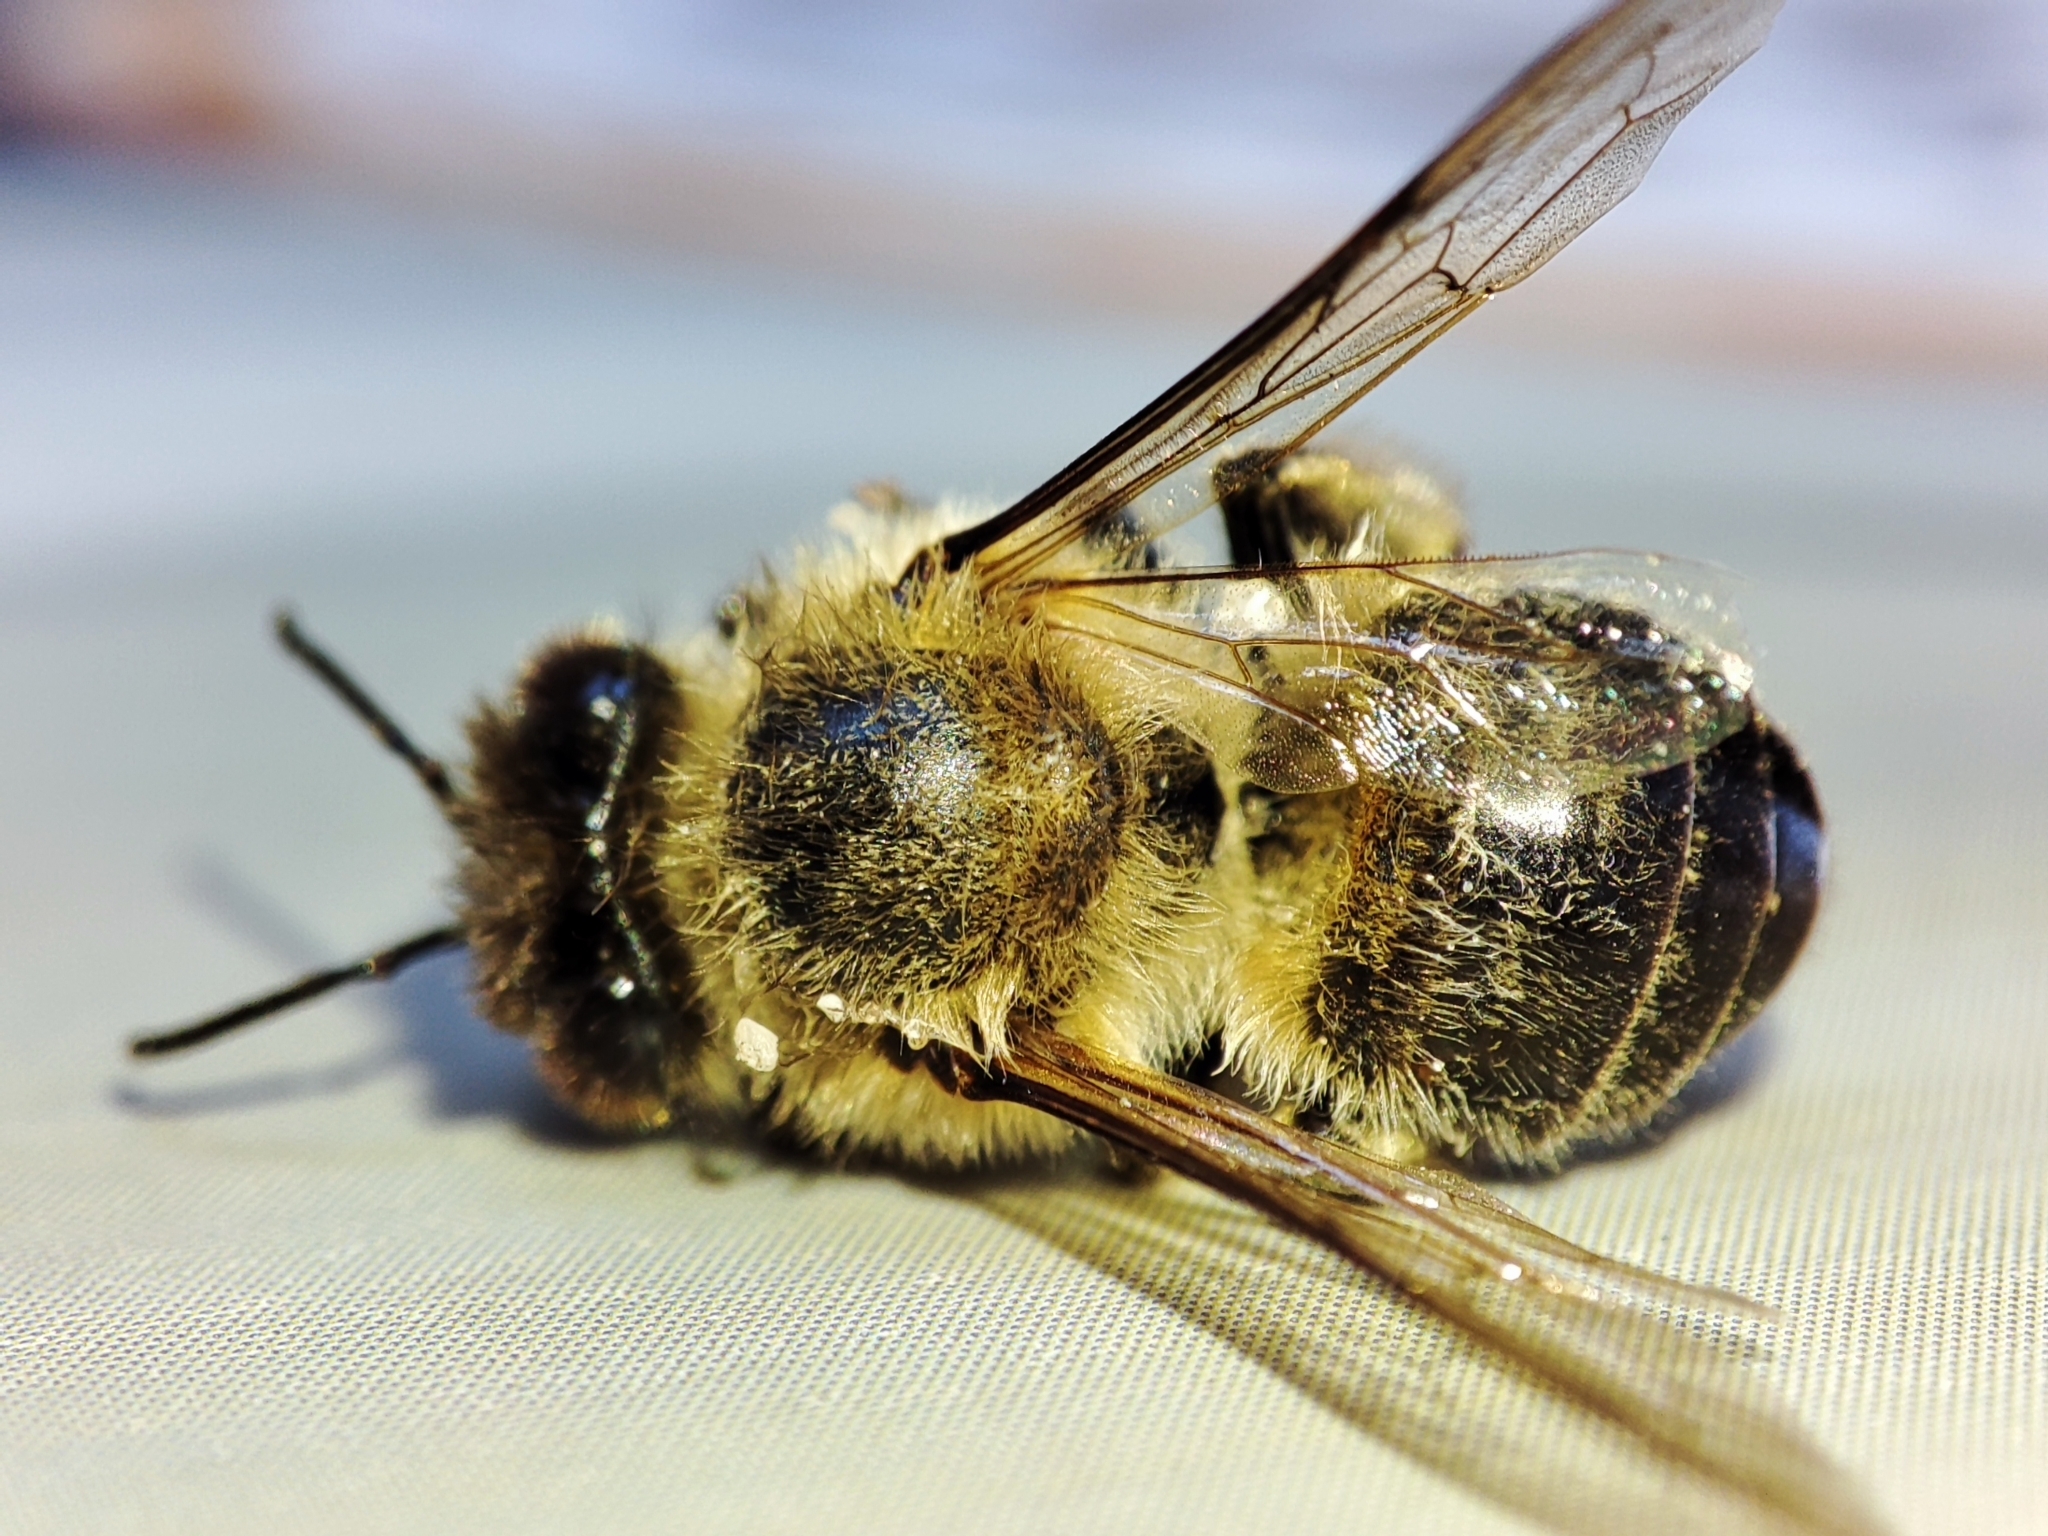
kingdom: Animalia
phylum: Arthropoda
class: Insecta
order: Hymenoptera
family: Apidae
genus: Apis
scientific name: Apis mellifera
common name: Honey bee
